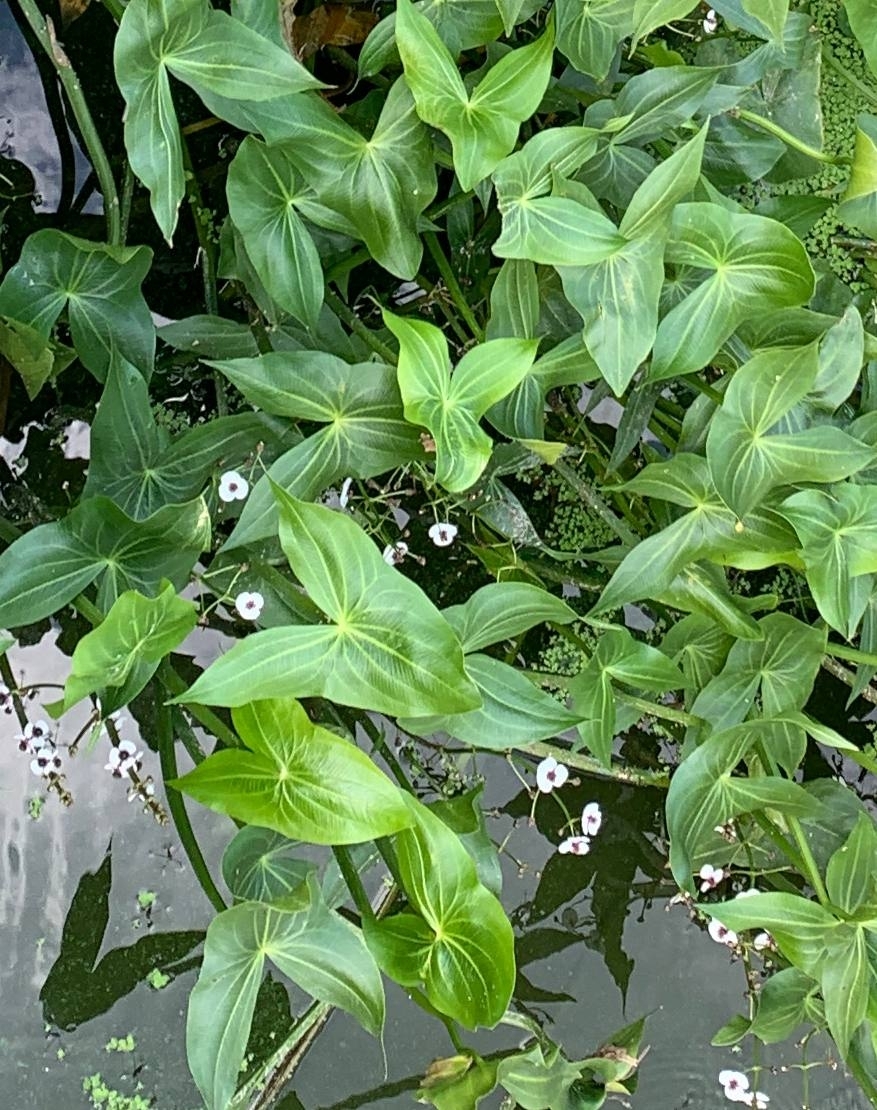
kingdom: Plantae
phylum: Tracheophyta
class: Liliopsida
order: Alismatales
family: Alismataceae
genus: Sagittaria
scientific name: Sagittaria sagittifolia
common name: Arrowhead
